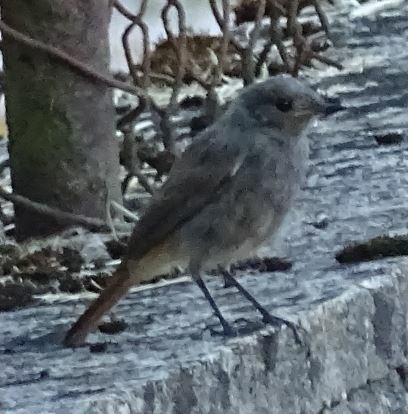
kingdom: Animalia
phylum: Chordata
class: Aves
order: Passeriformes
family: Muscicapidae
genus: Phoenicurus
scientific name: Phoenicurus ochruros
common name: Black redstart
